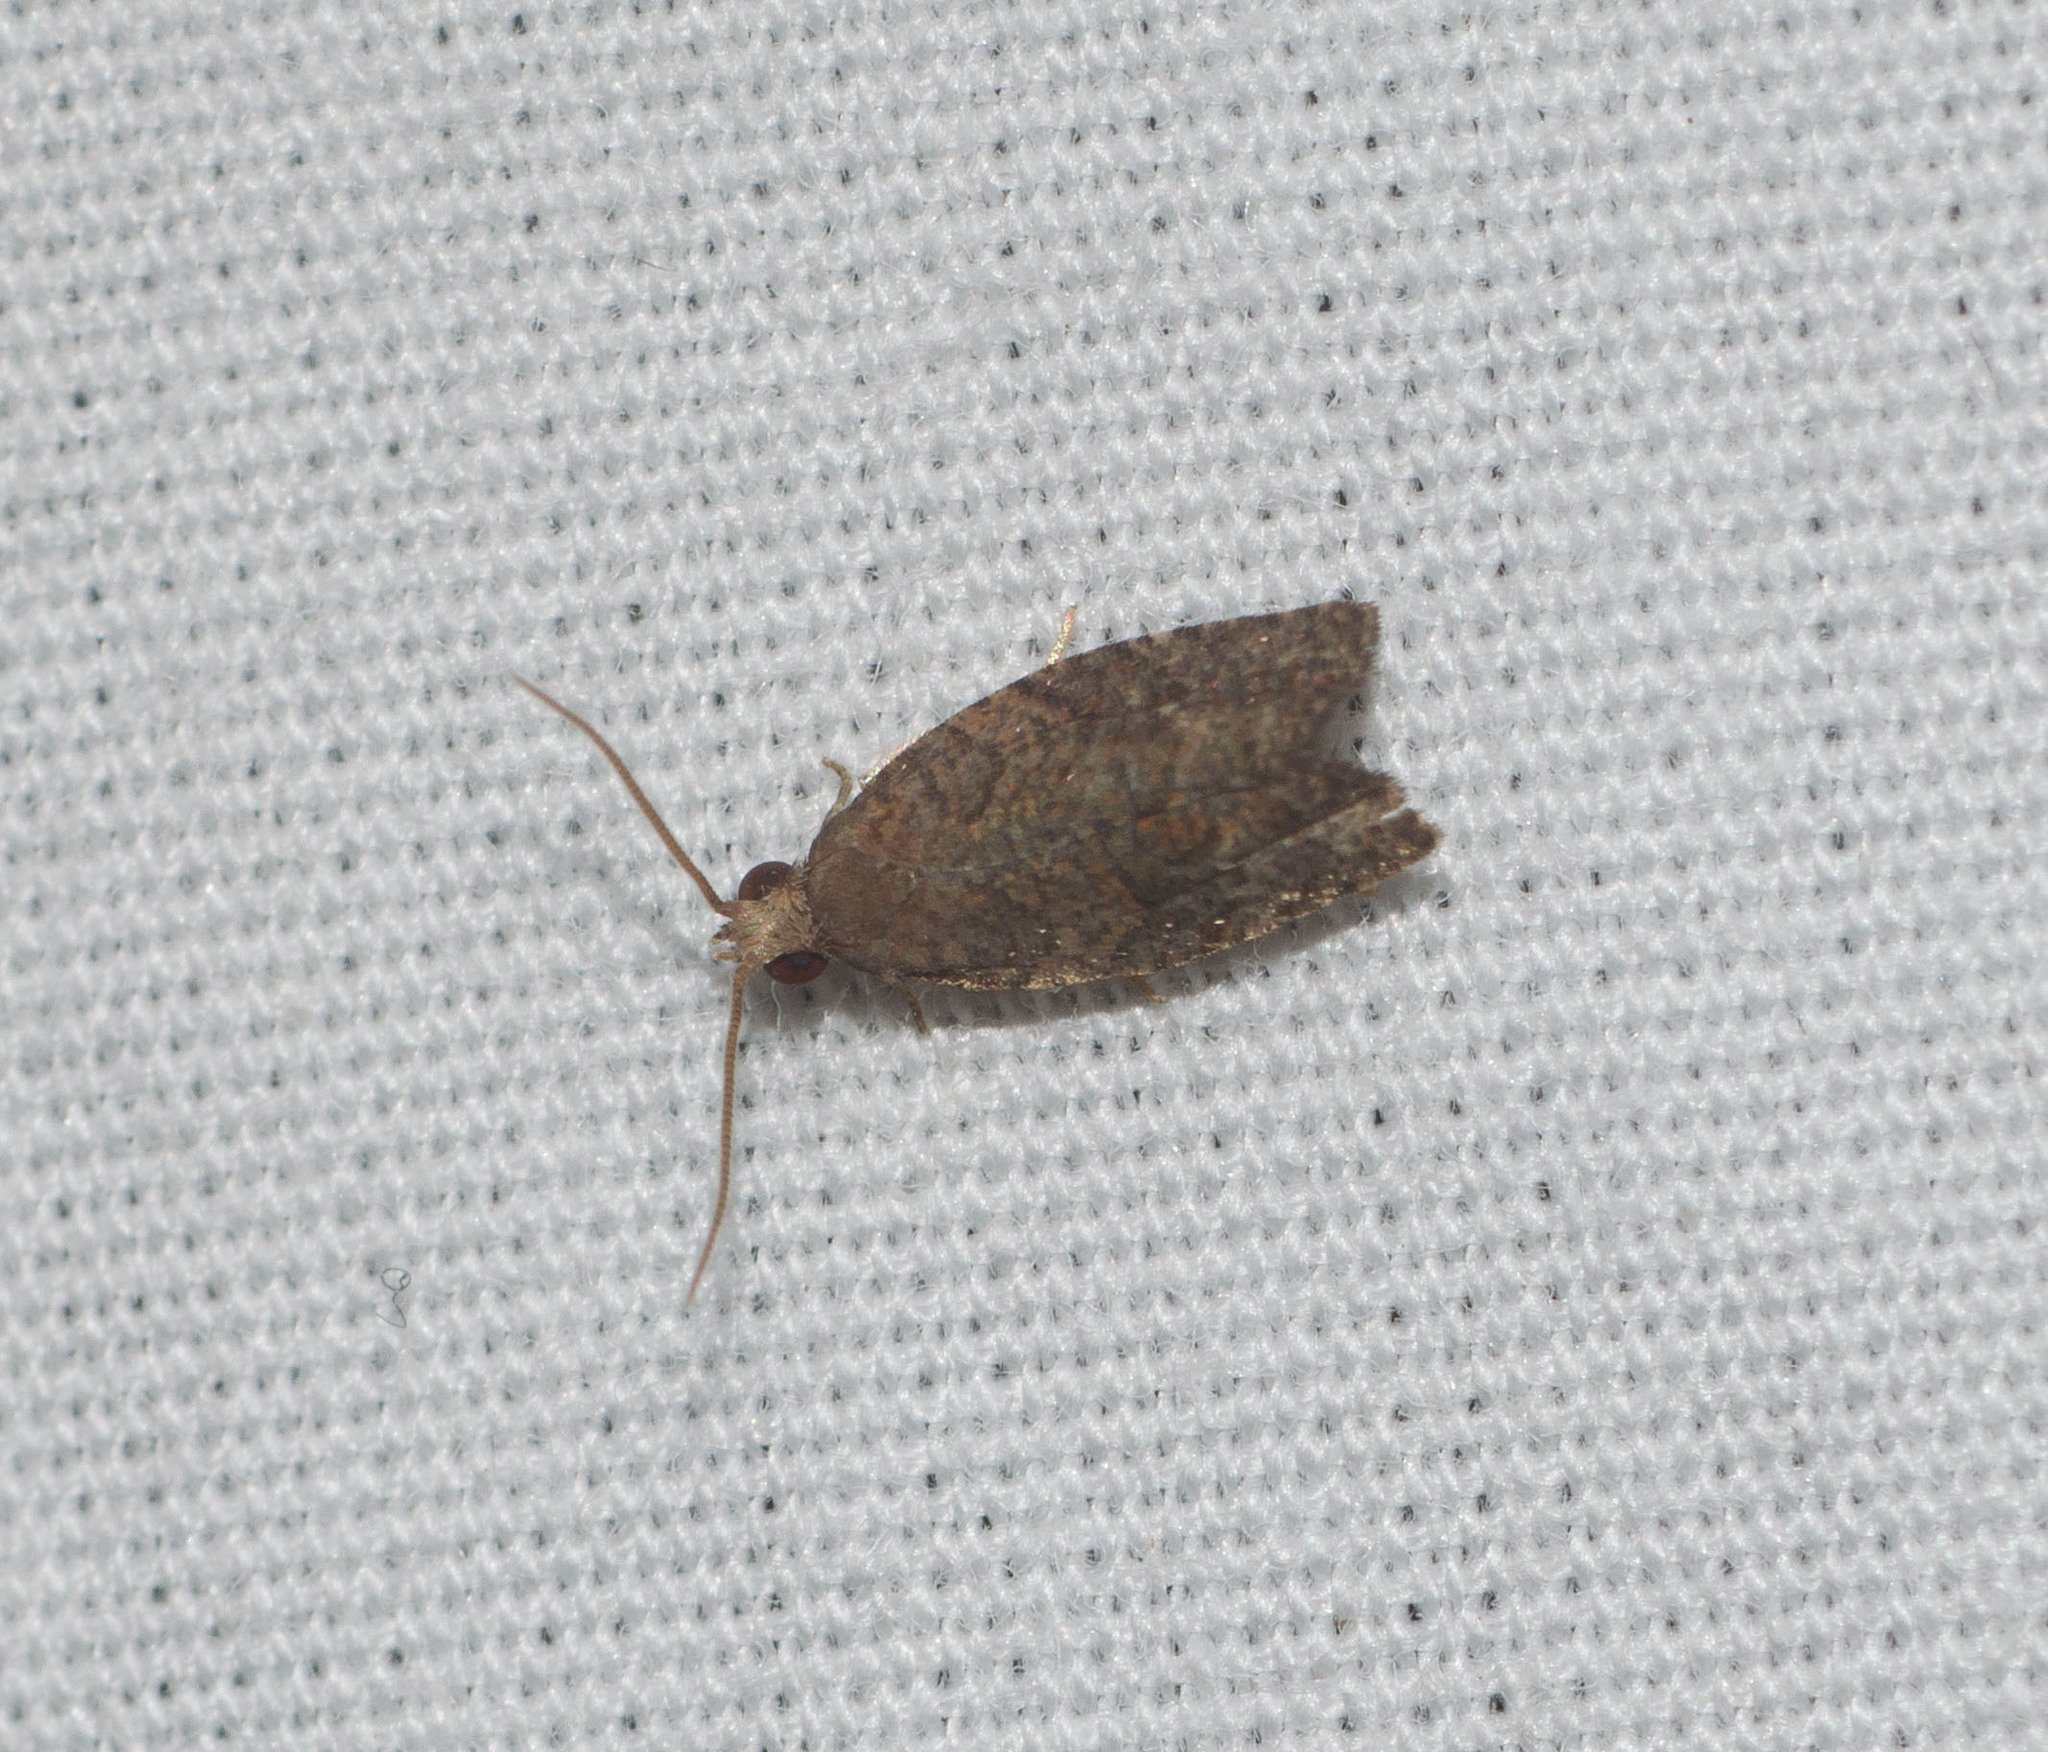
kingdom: Animalia
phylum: Arthropoda
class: Insecta
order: Lepidoptera
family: Tortricidae
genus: Spheterista
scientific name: Spheterista infaustana
